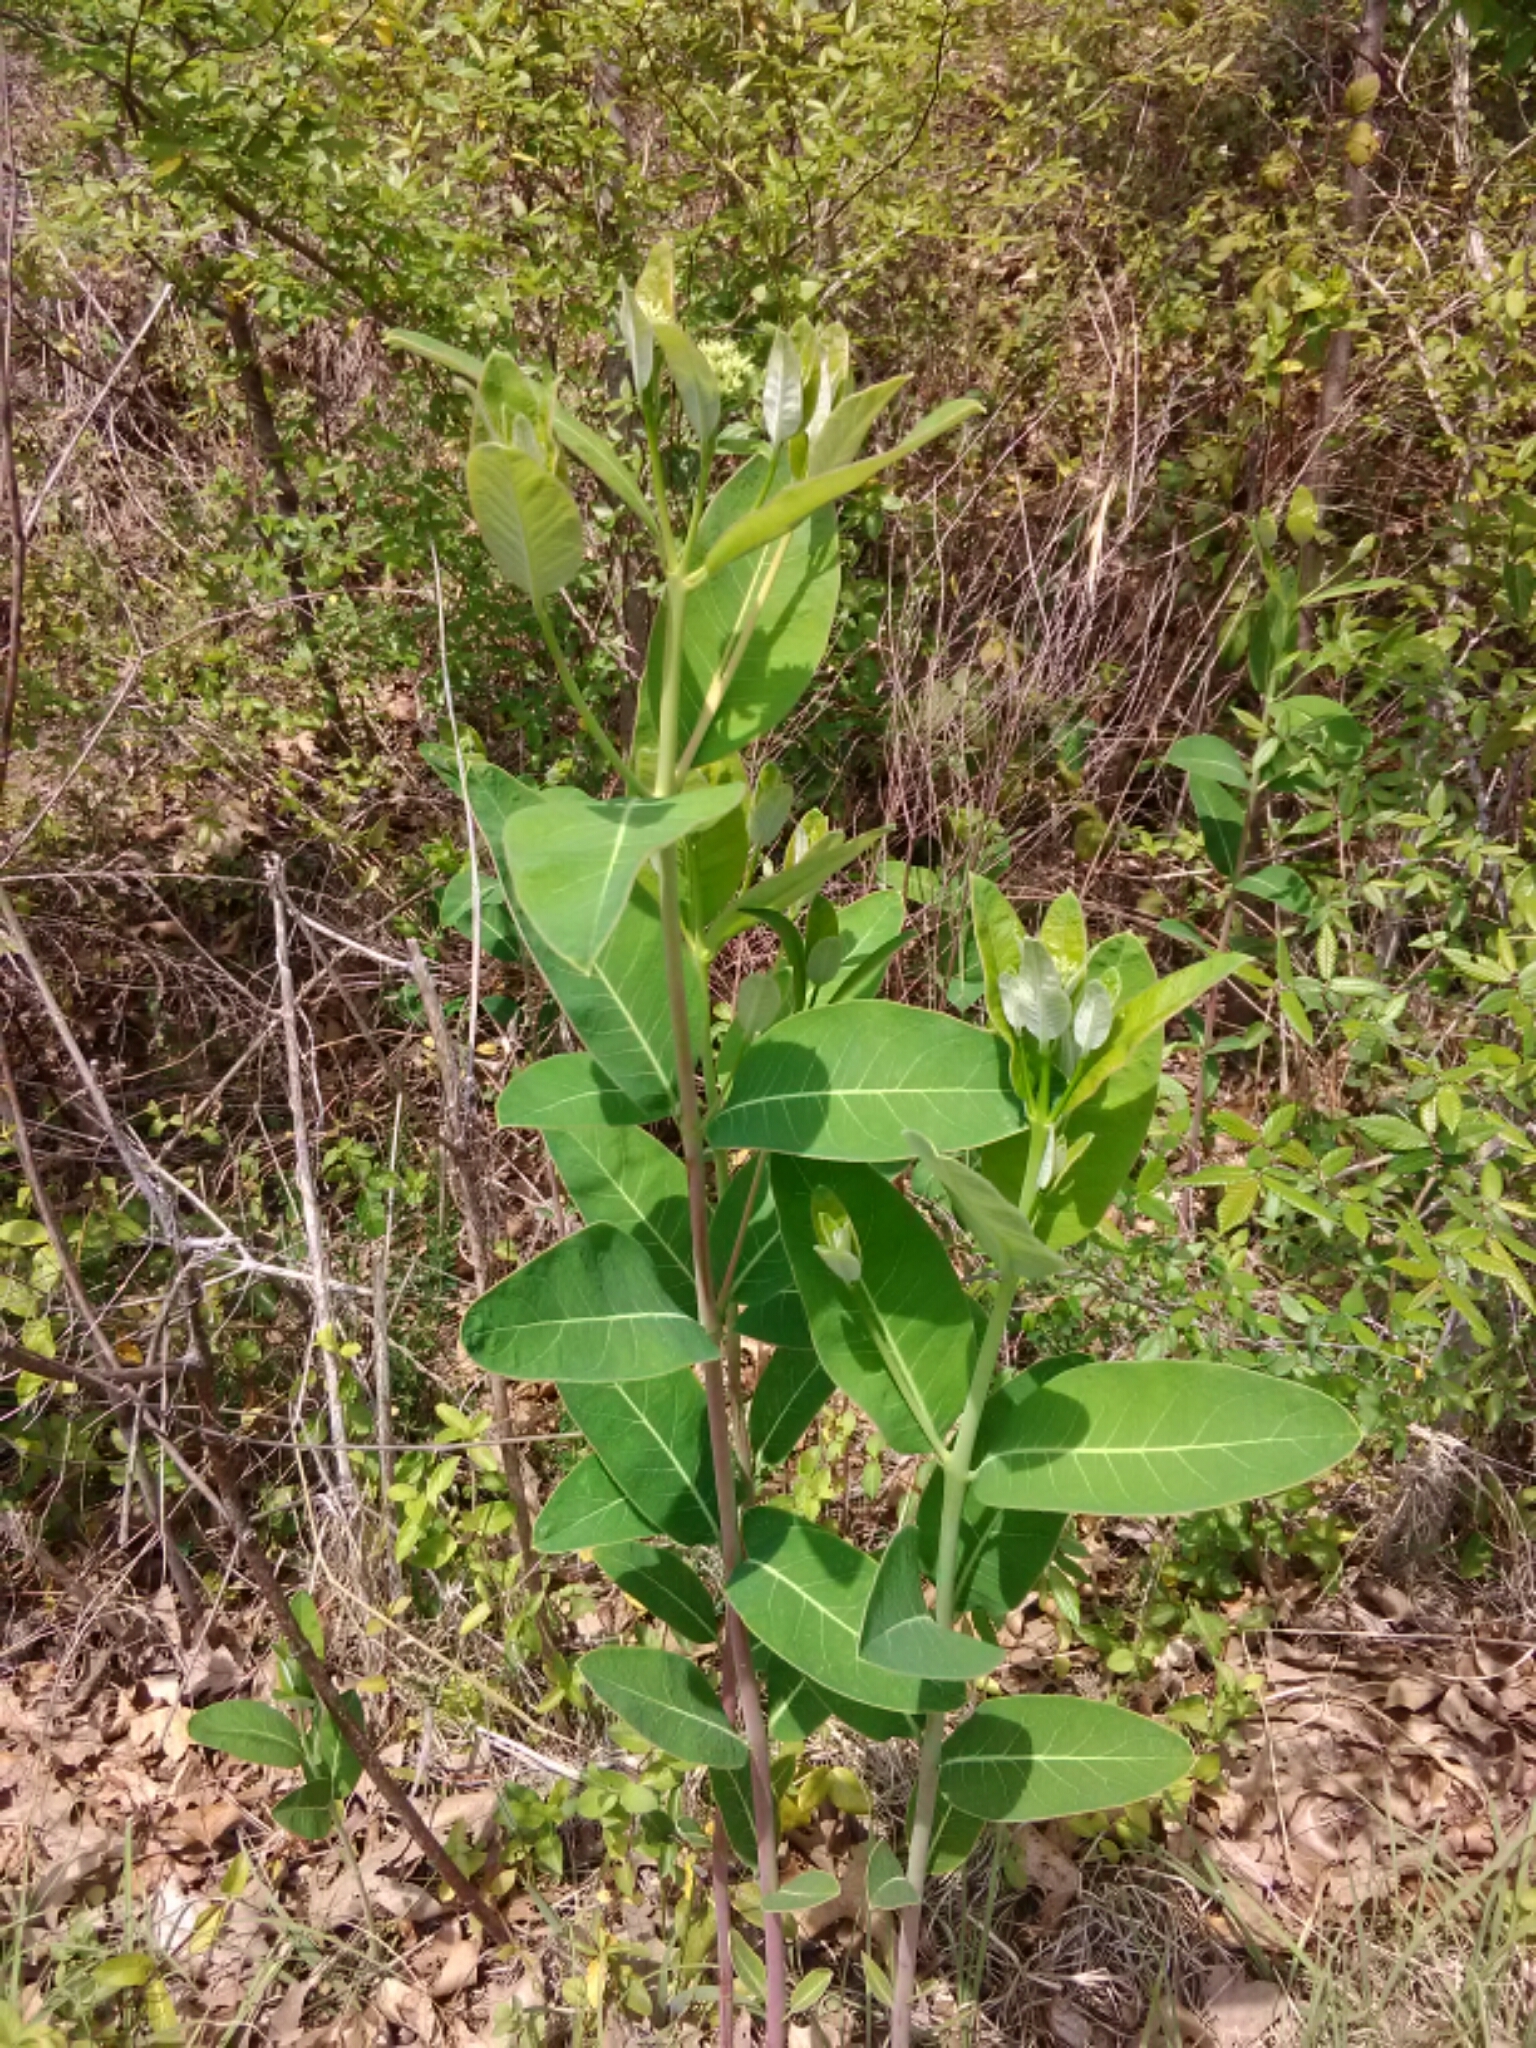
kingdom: Plantae
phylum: Tracheophyta
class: Magnoliopsida
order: Gentianales
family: Apocynaceae
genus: Apocynum
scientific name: Apocynum cannabinum
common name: Hemp dogbane
